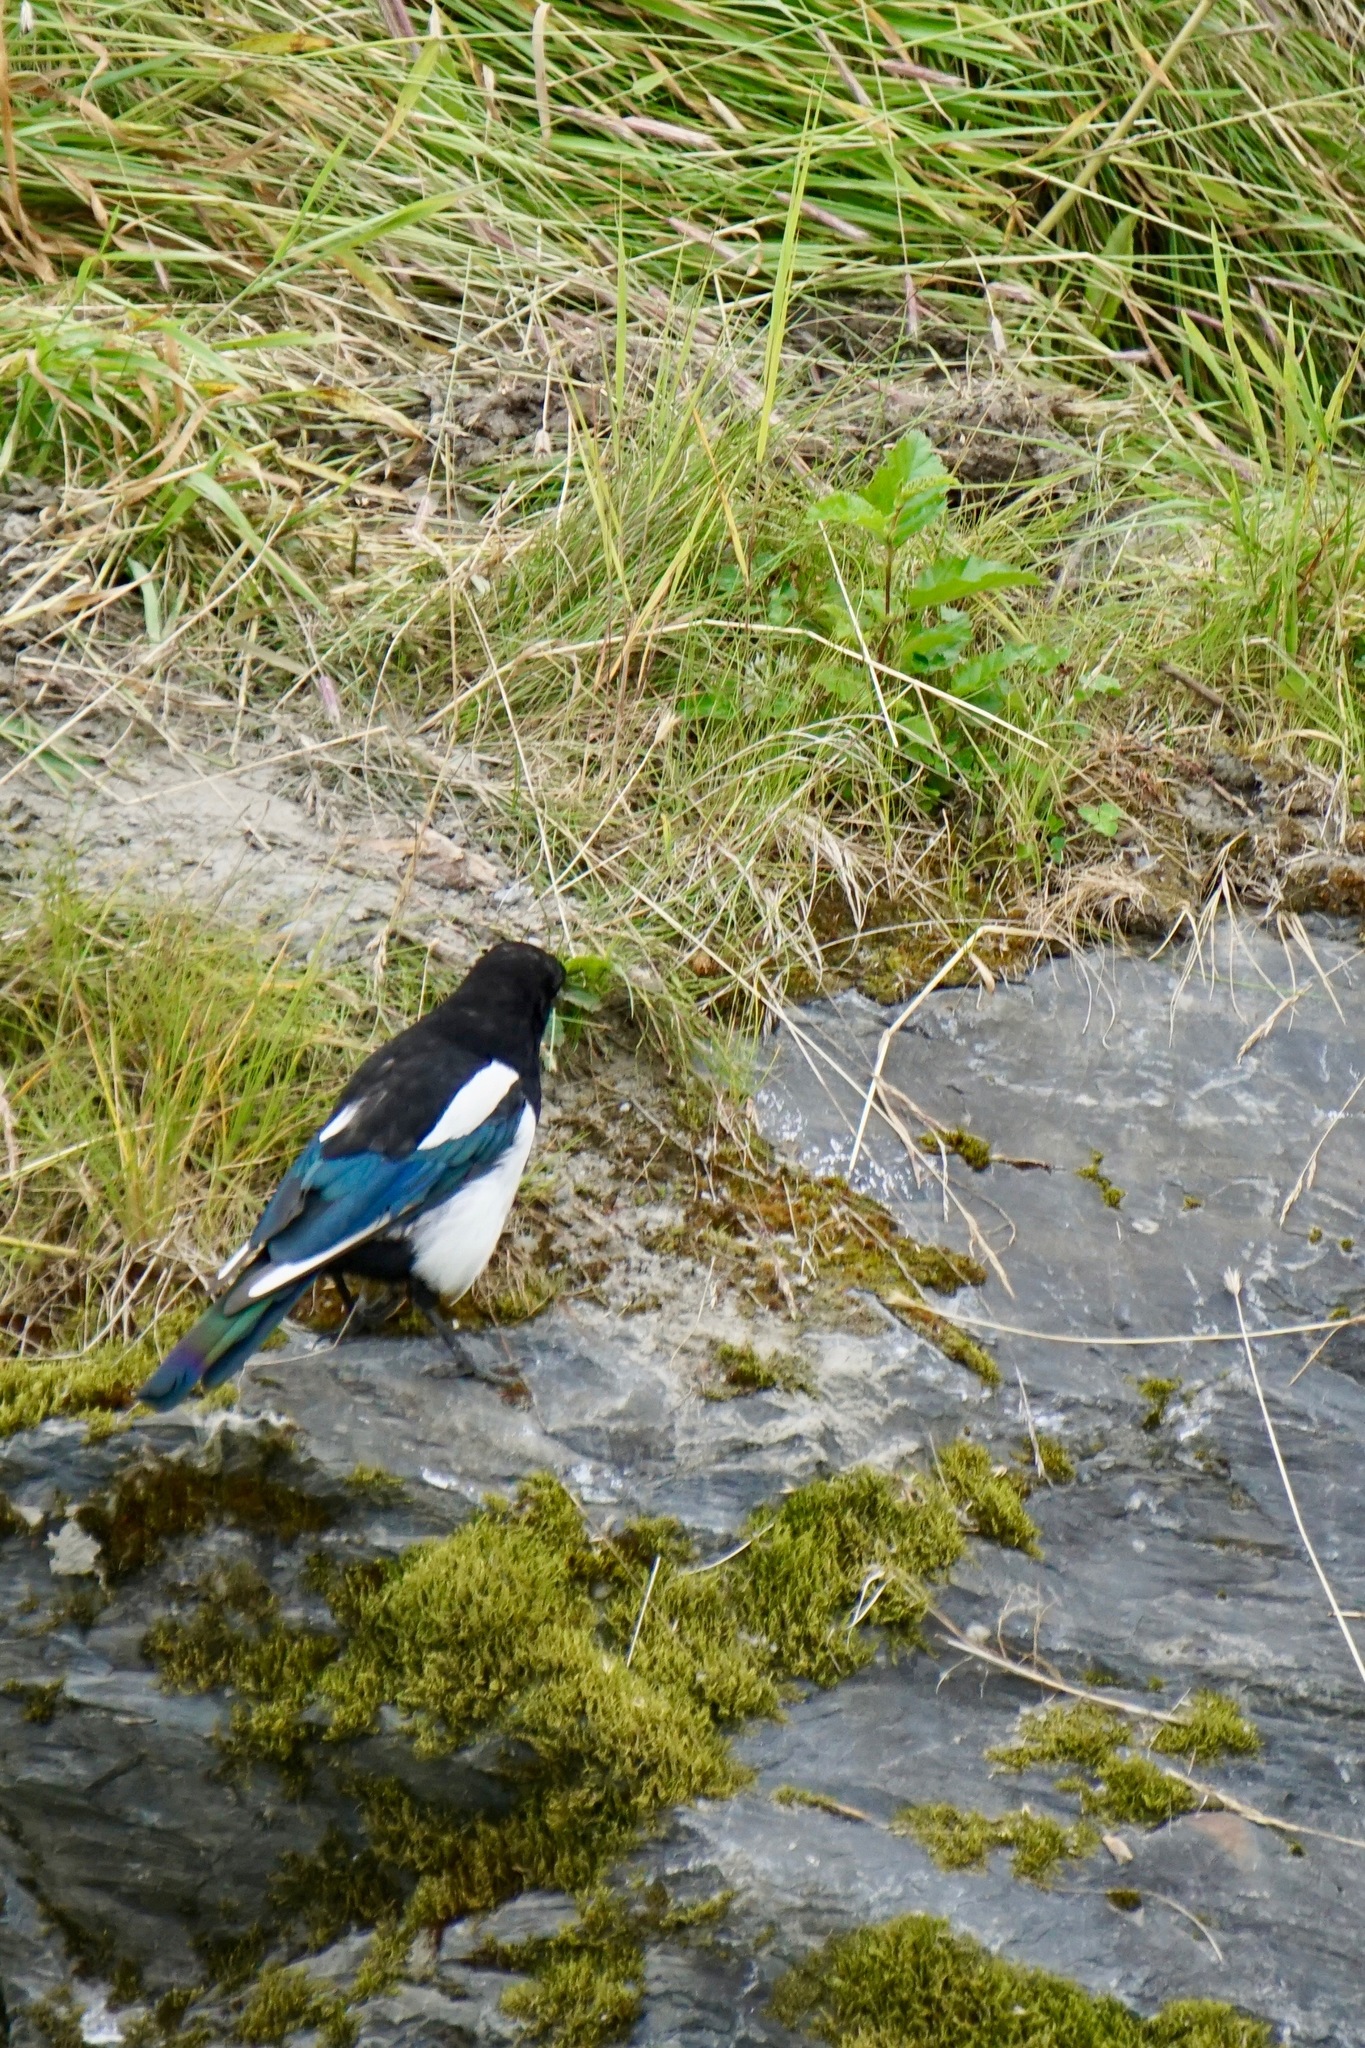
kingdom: Animalia
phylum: Chordata
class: Aves
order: Passeriformes
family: Corvidae
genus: Pica
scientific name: Pica hudsonia
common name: Black-billed magpie
